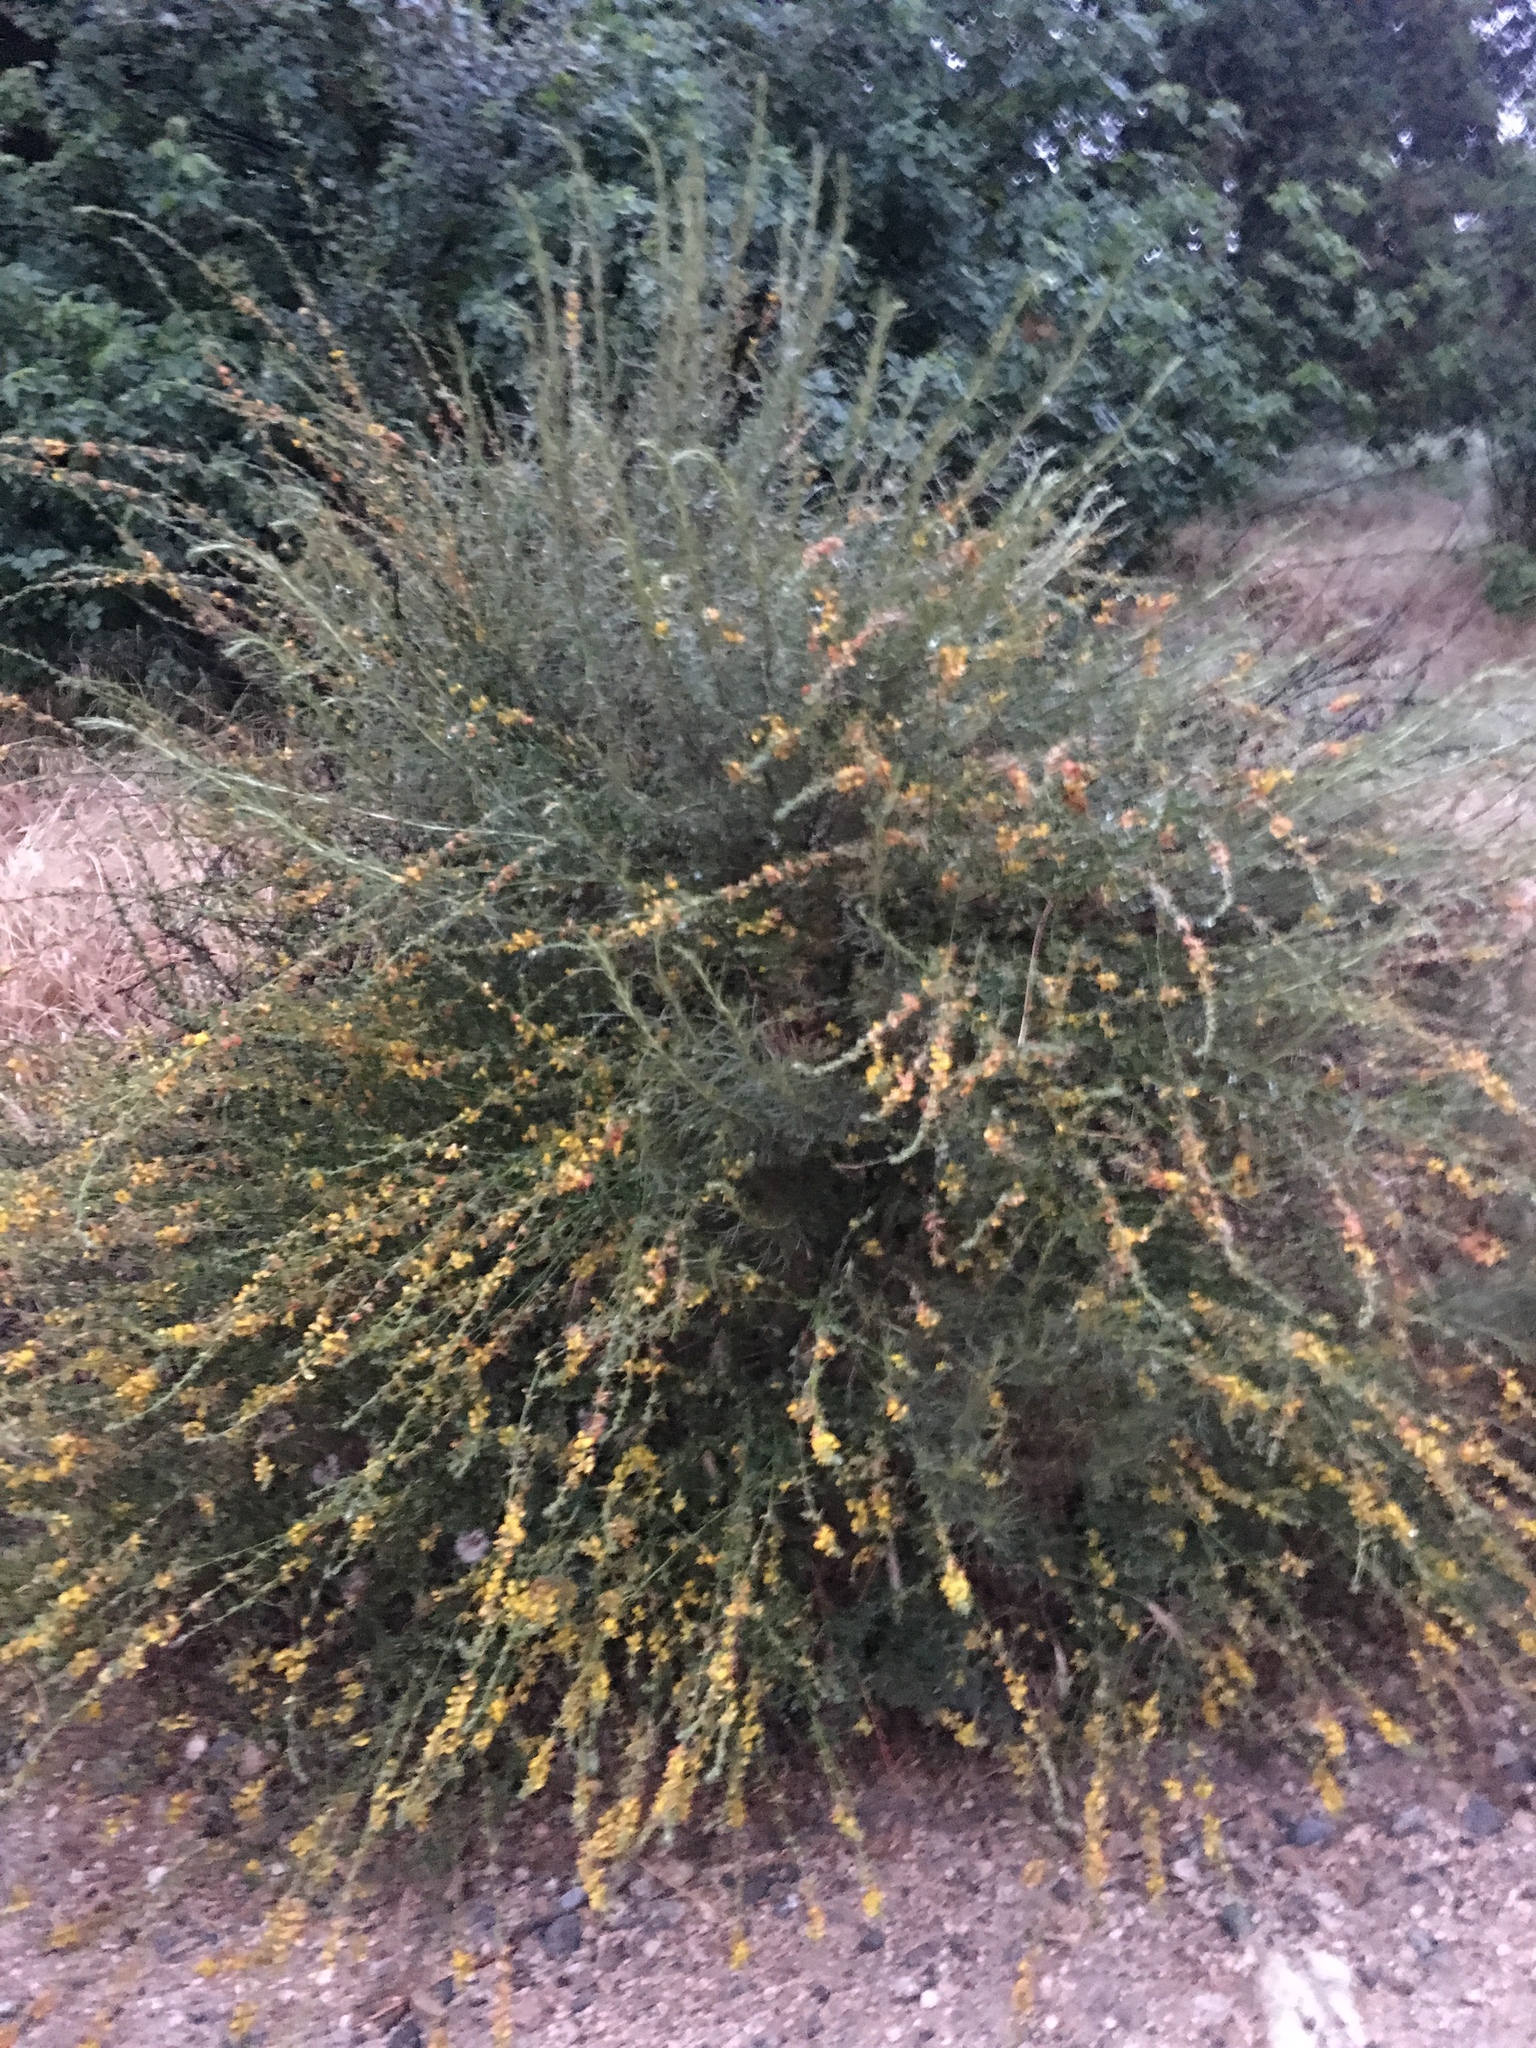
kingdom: Plantae
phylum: Tracheophyta
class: Magnoliopsida
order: Fabales
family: Fabaceae
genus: Acmispon
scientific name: Acmispon glaber
